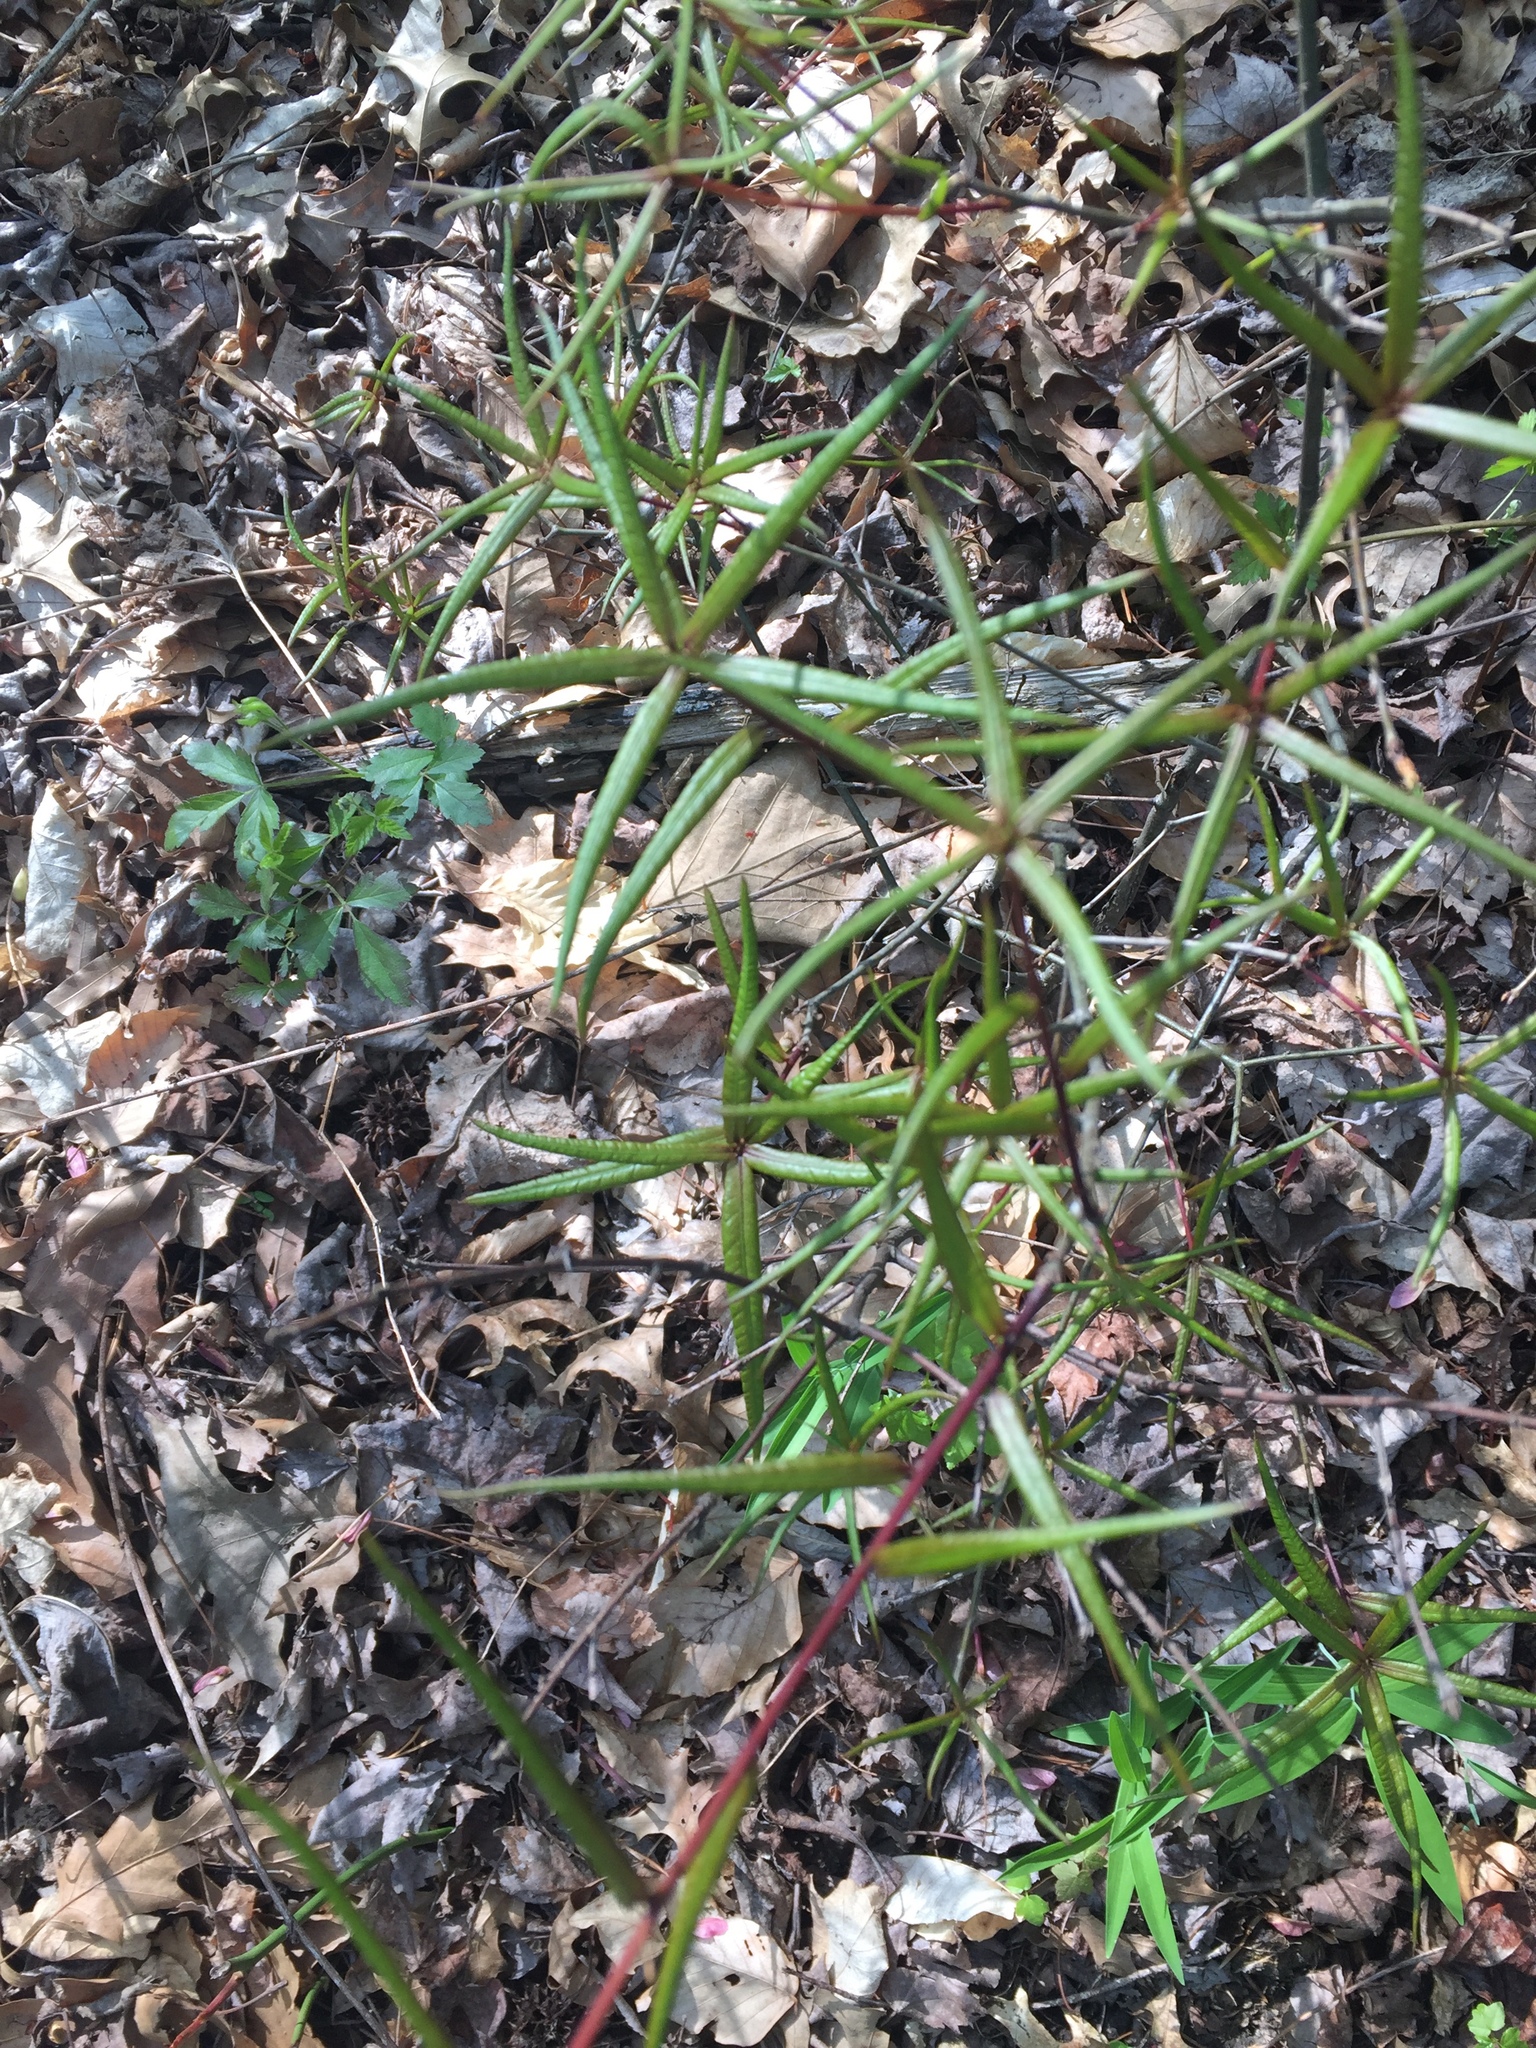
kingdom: Plantae
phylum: Tracheophyta
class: Magnoliopsida
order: Fagales
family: Fagaceae
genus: Quercus
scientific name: Quercus phellos
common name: Willow oak
